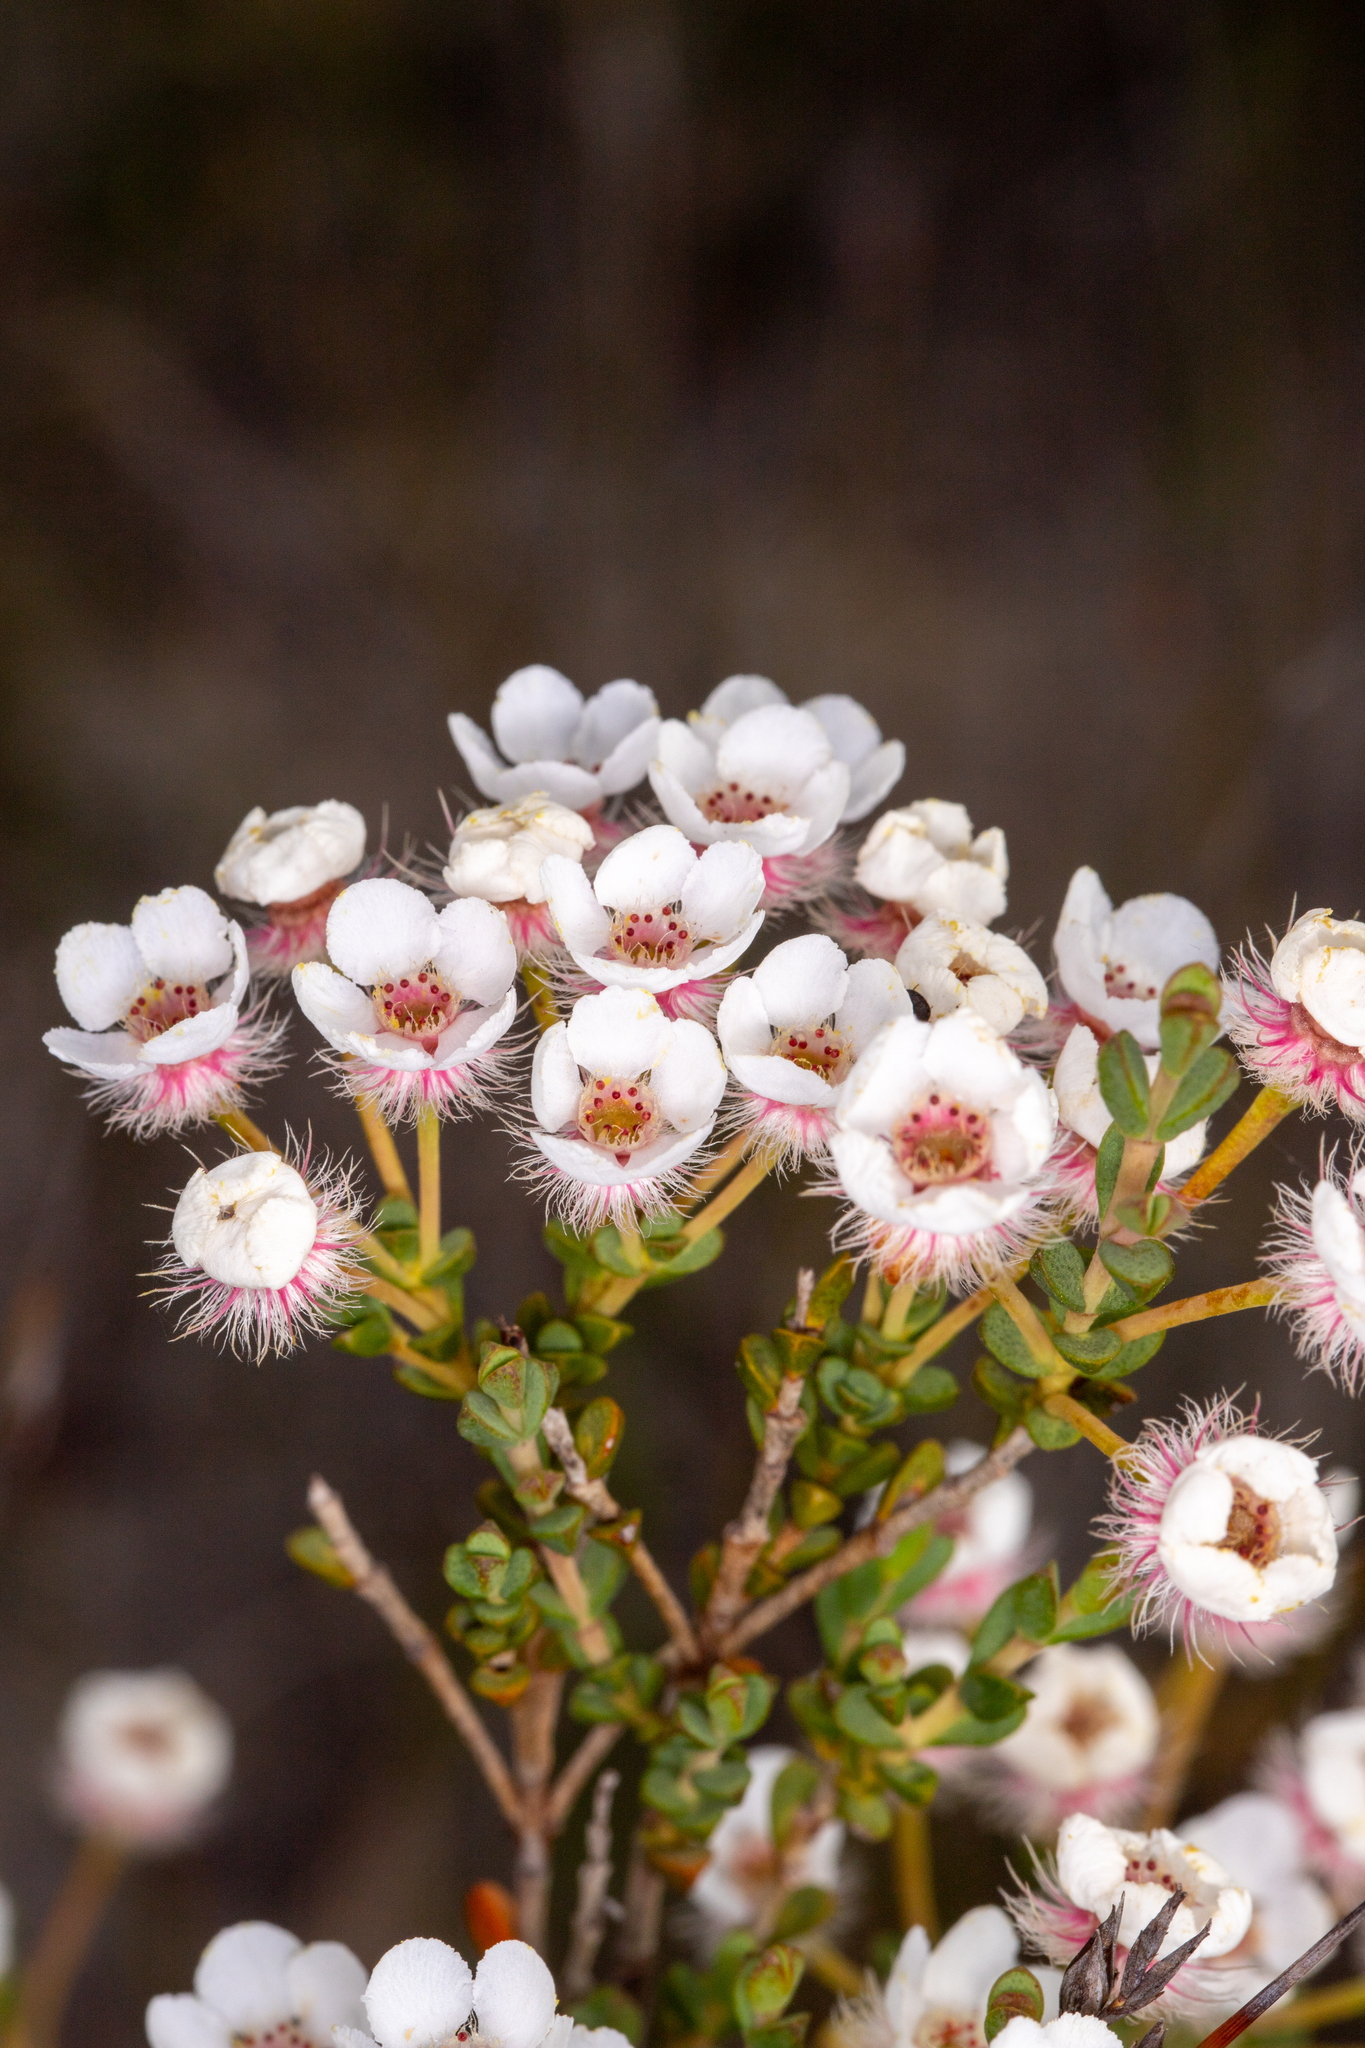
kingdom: Plantae
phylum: Tracheophyta
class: Magnoliopsida
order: Myrtales
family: Myrtaceae
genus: Verticordia
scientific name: Verticordia habrantha
